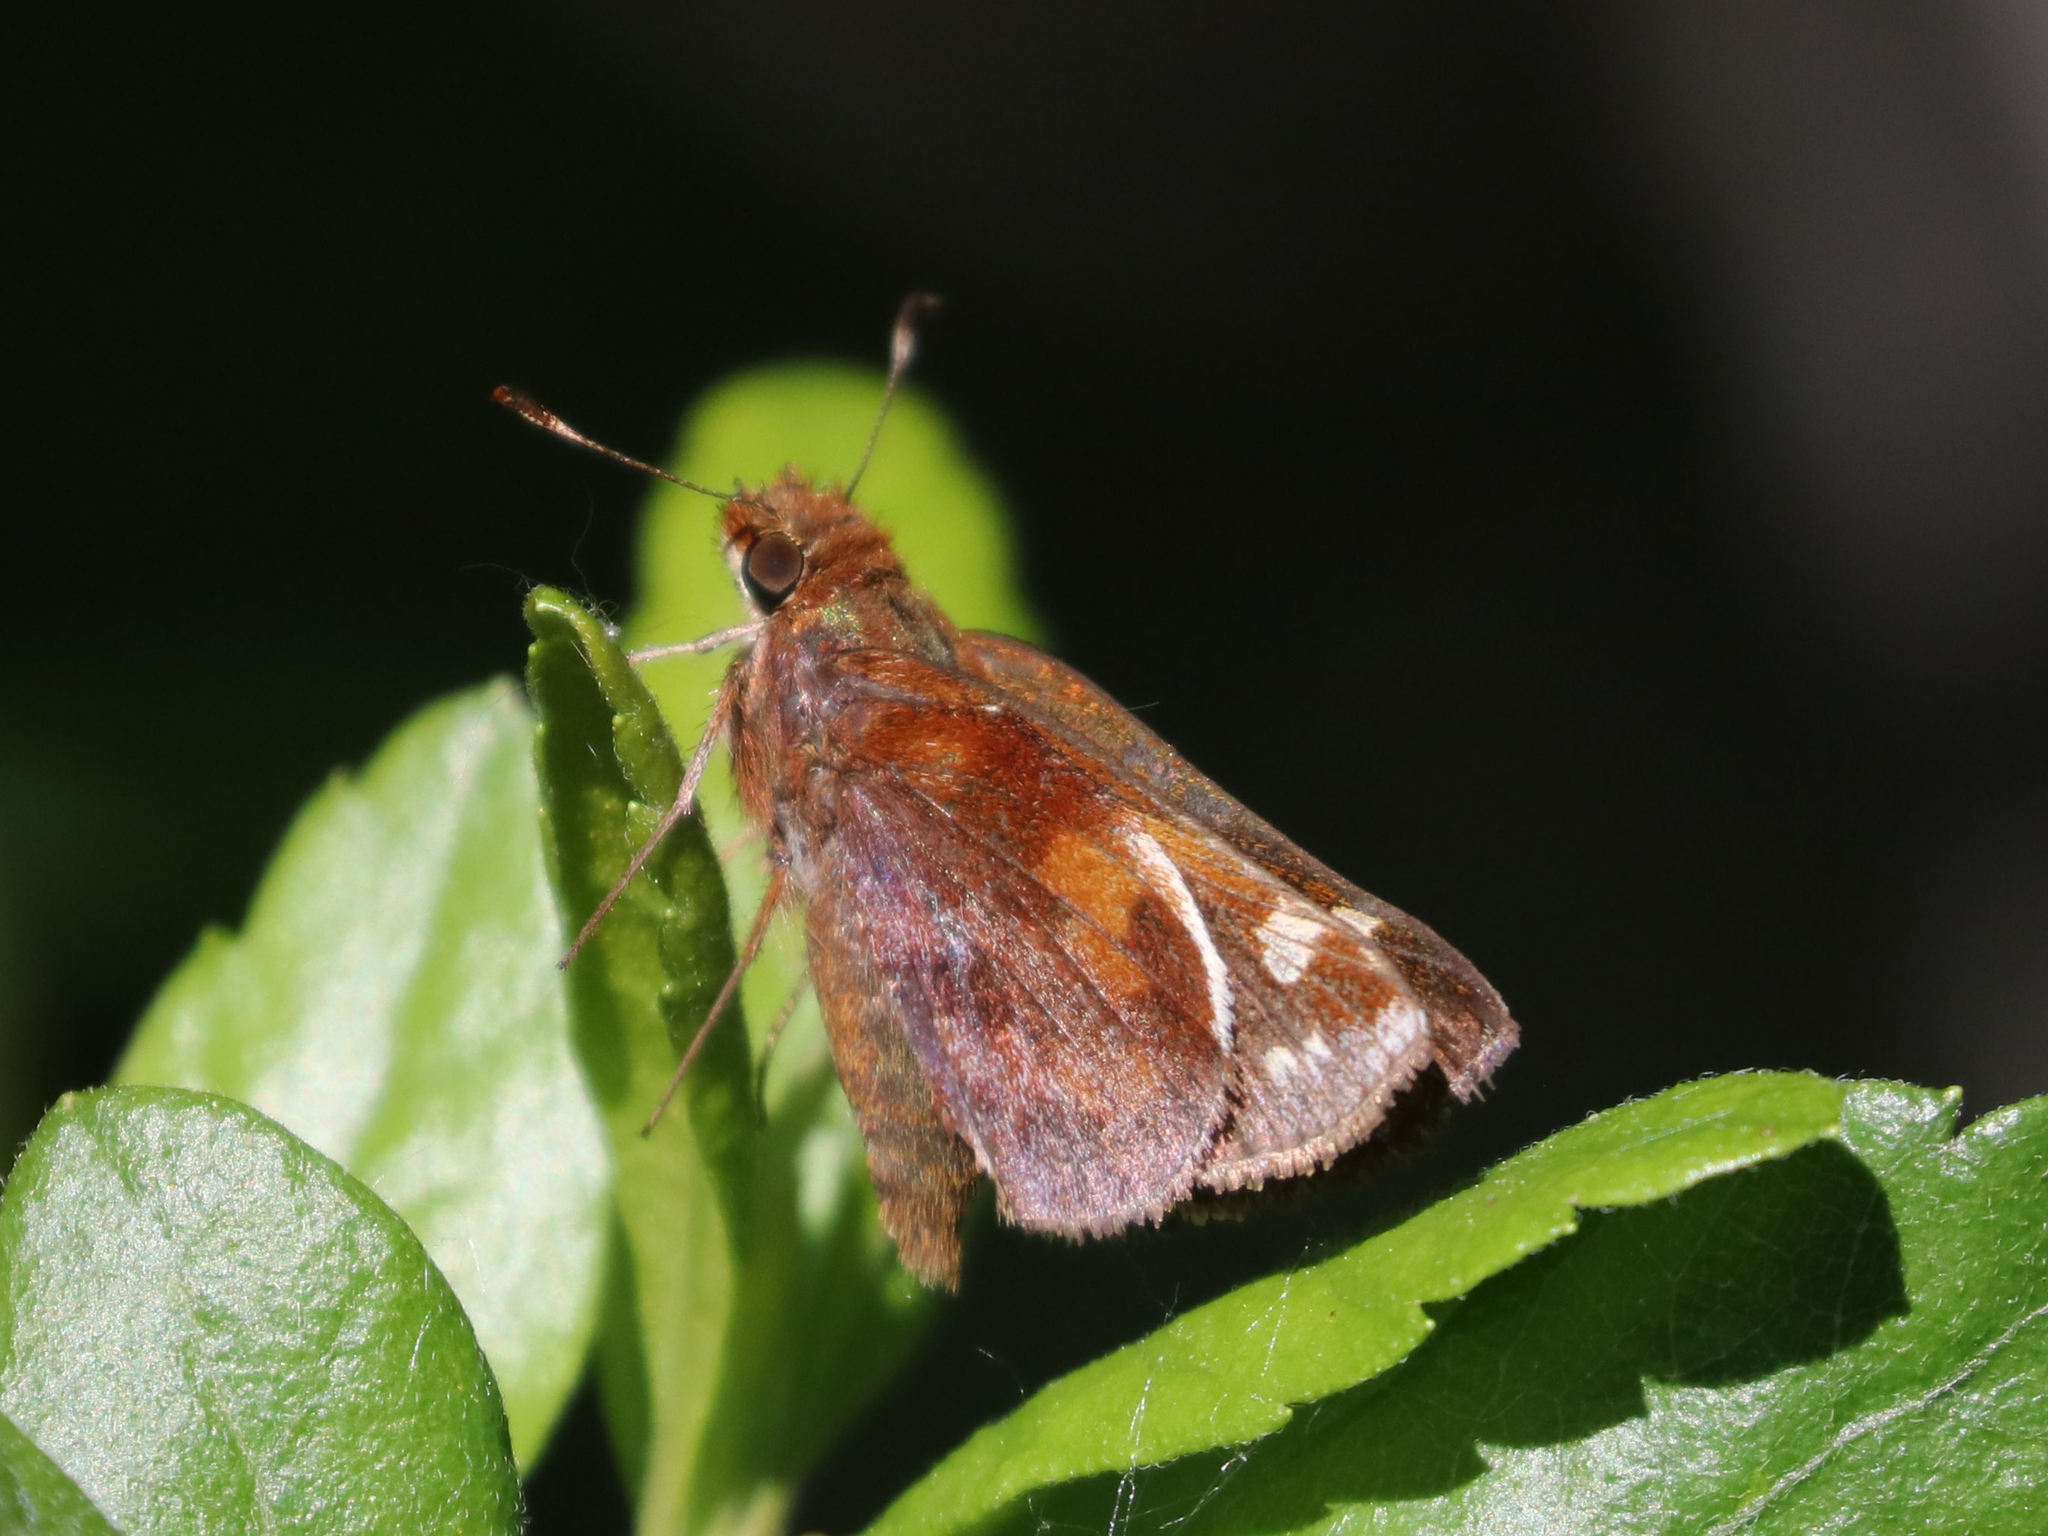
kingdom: Animalia
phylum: Arthropoda
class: Insecta
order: Lepidoptera
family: Hesperiidae
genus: Lon
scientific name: Lon zabulon
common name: Zabulon skipper
